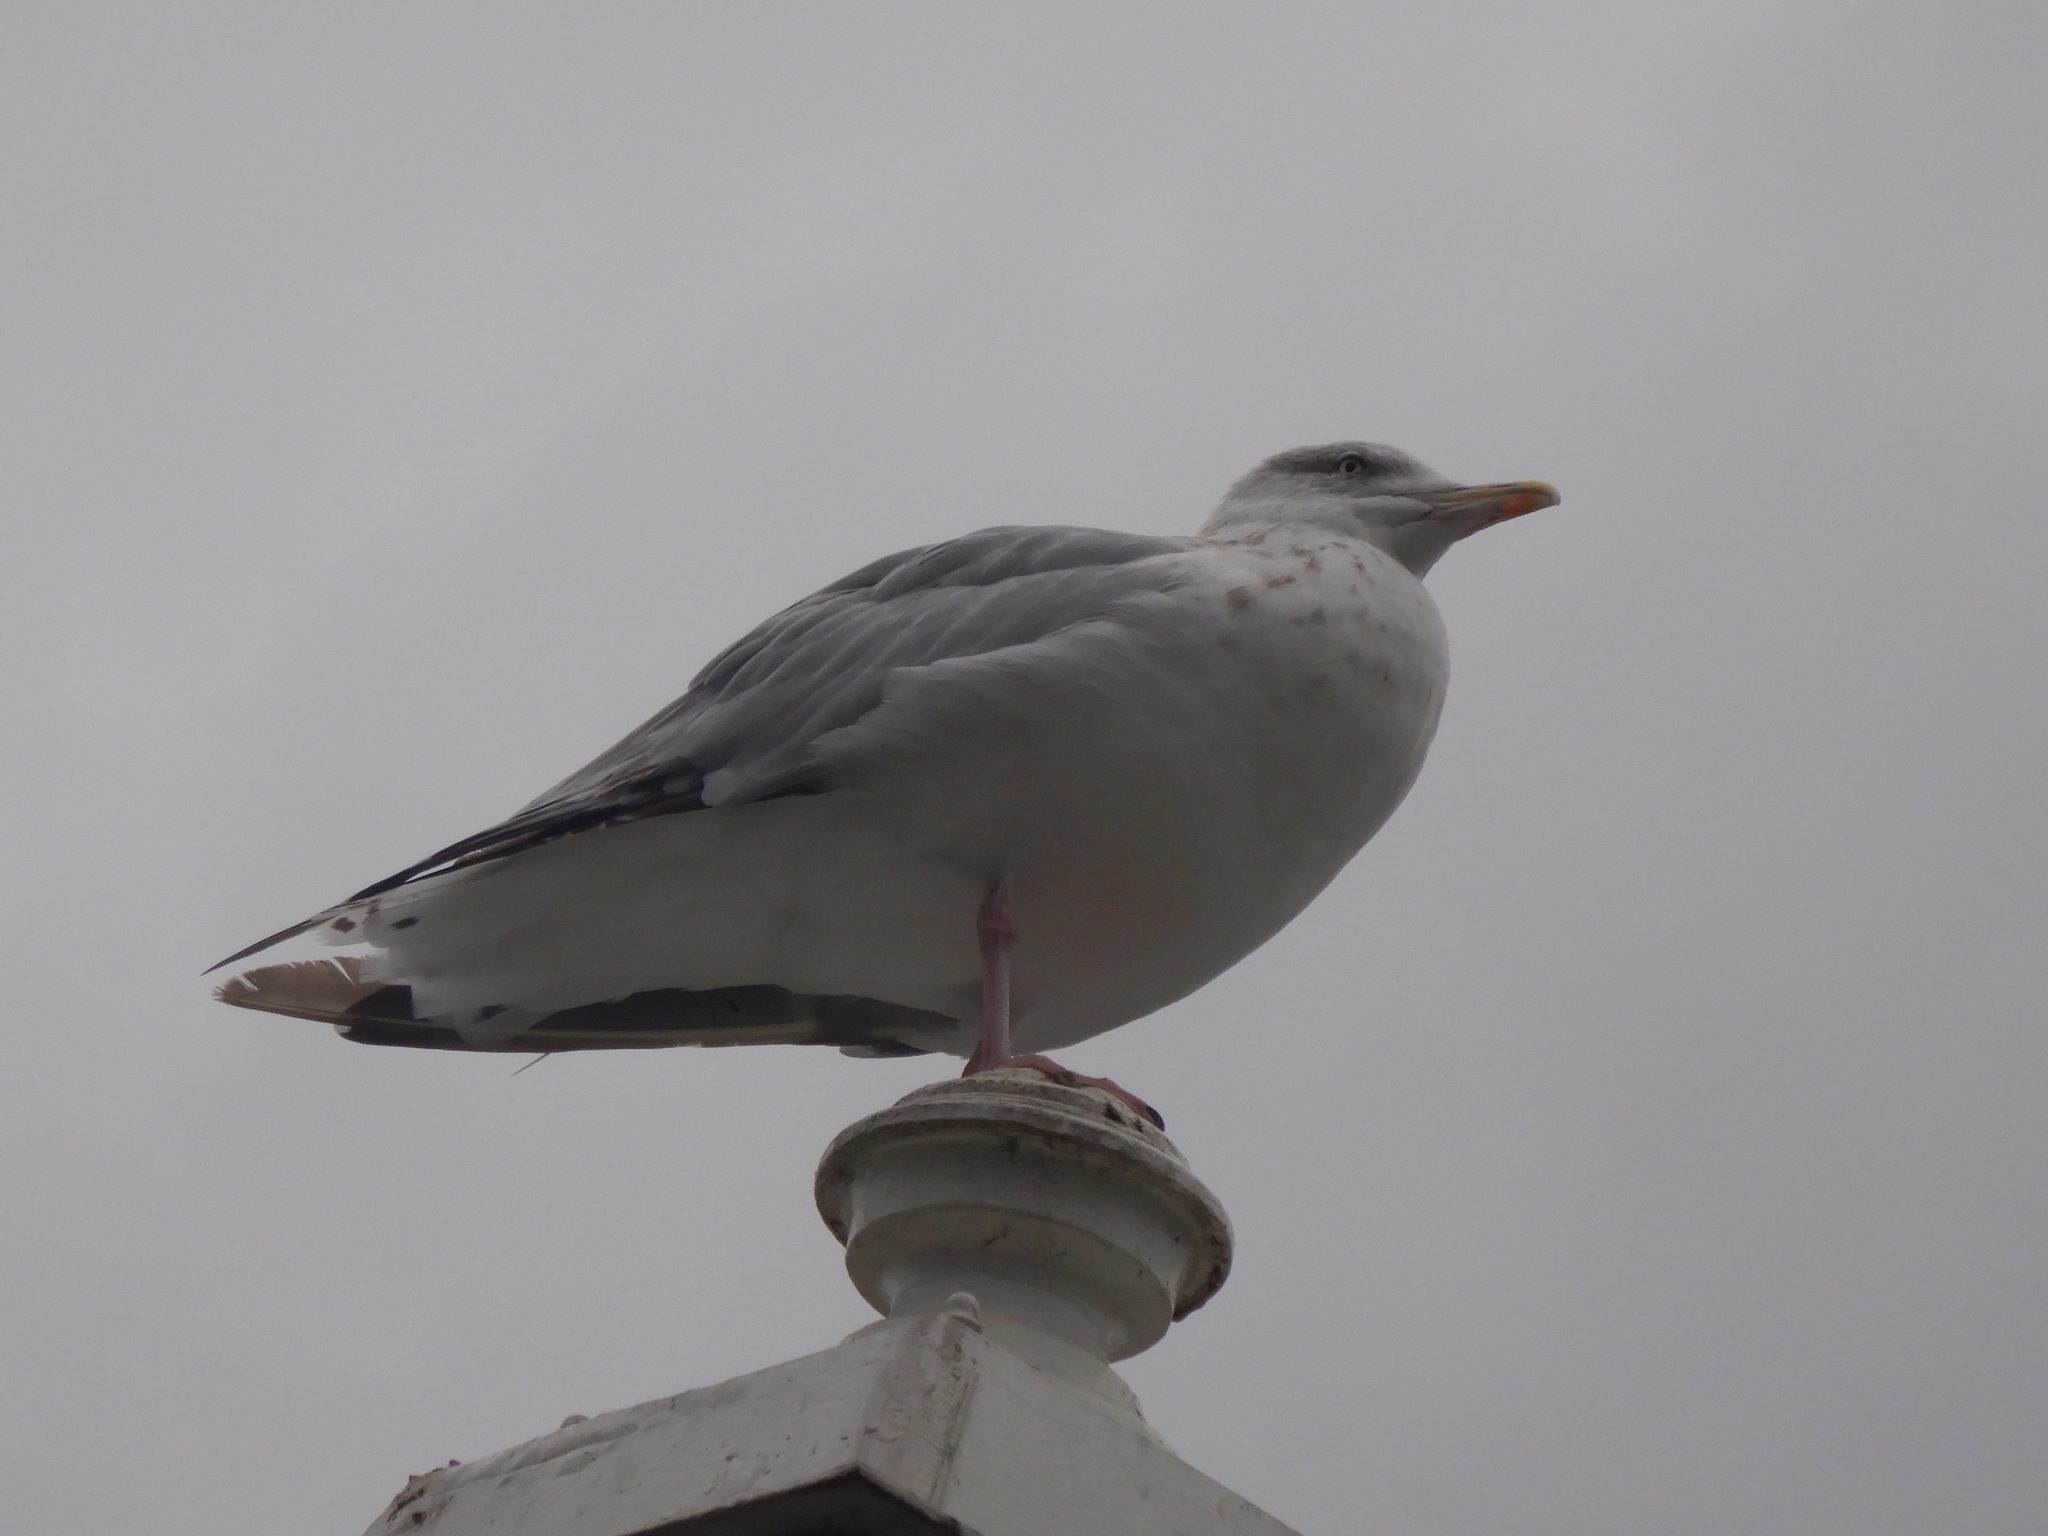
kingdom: Animalia
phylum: Chordata
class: Aves
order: Charadriiformes
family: Laridae
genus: Larus
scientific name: Larus argentatus
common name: Herring gull
